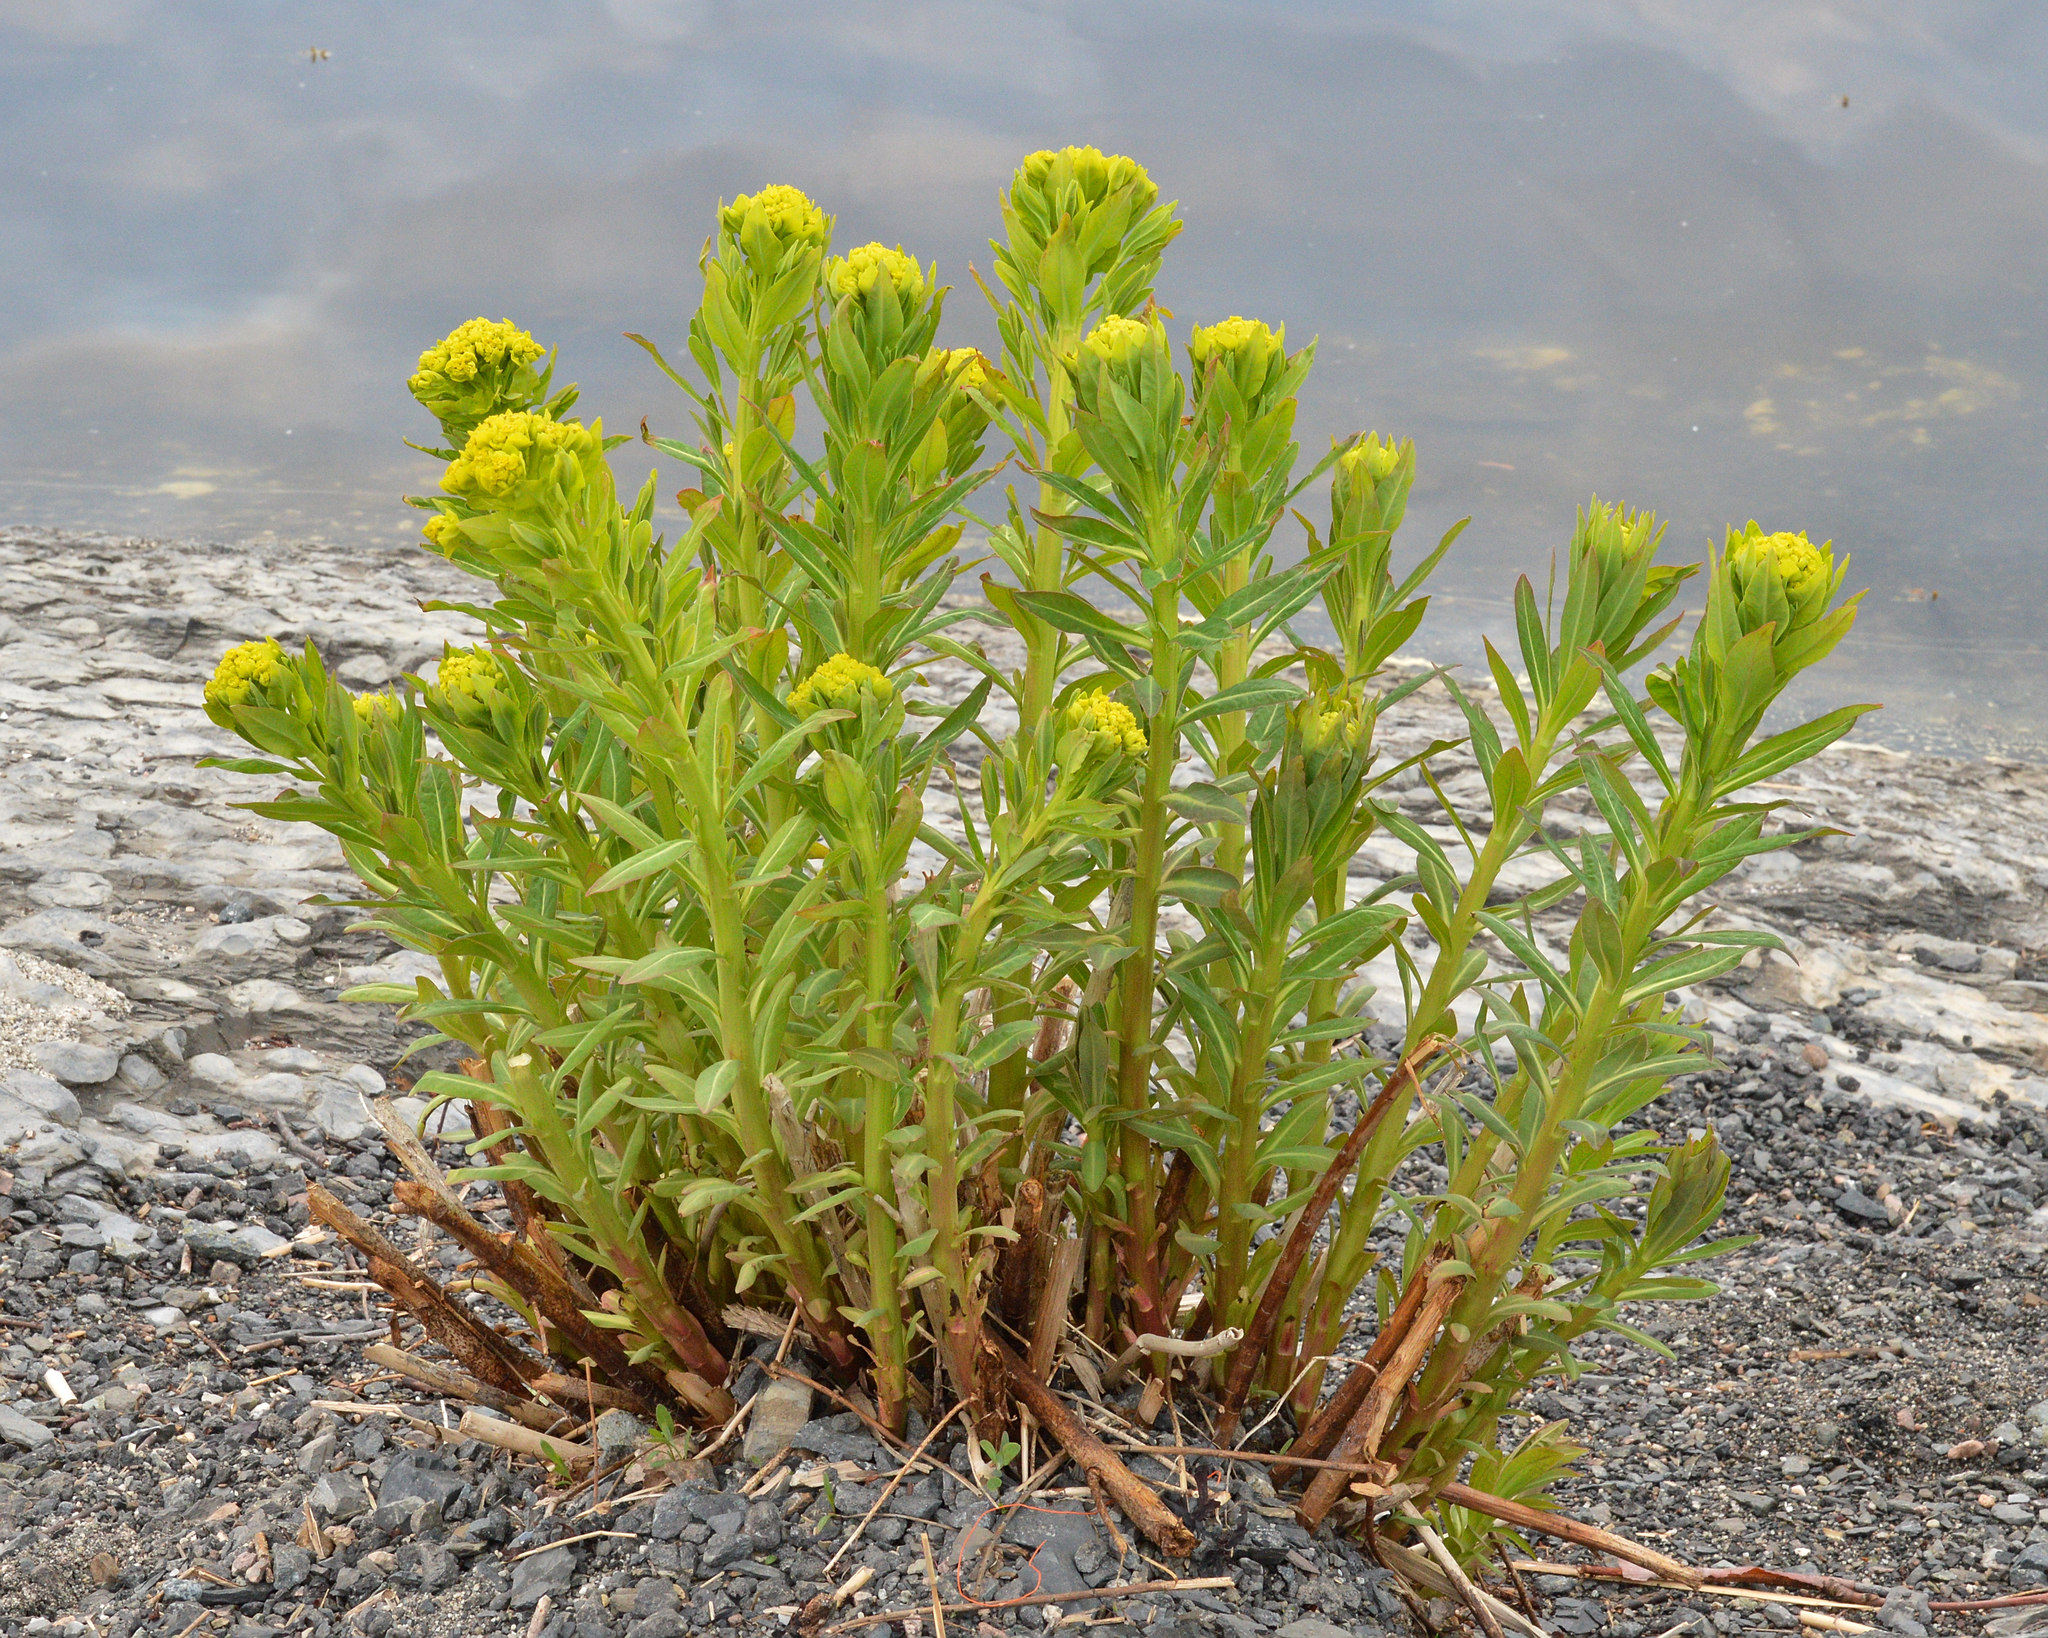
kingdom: Plantae
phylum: Tracheophyta
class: Magnoliopsida
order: Malpighiales
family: Euphorbiaceae
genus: Euphorbia
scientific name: Euphorbia palustris
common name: Marsh spurge
